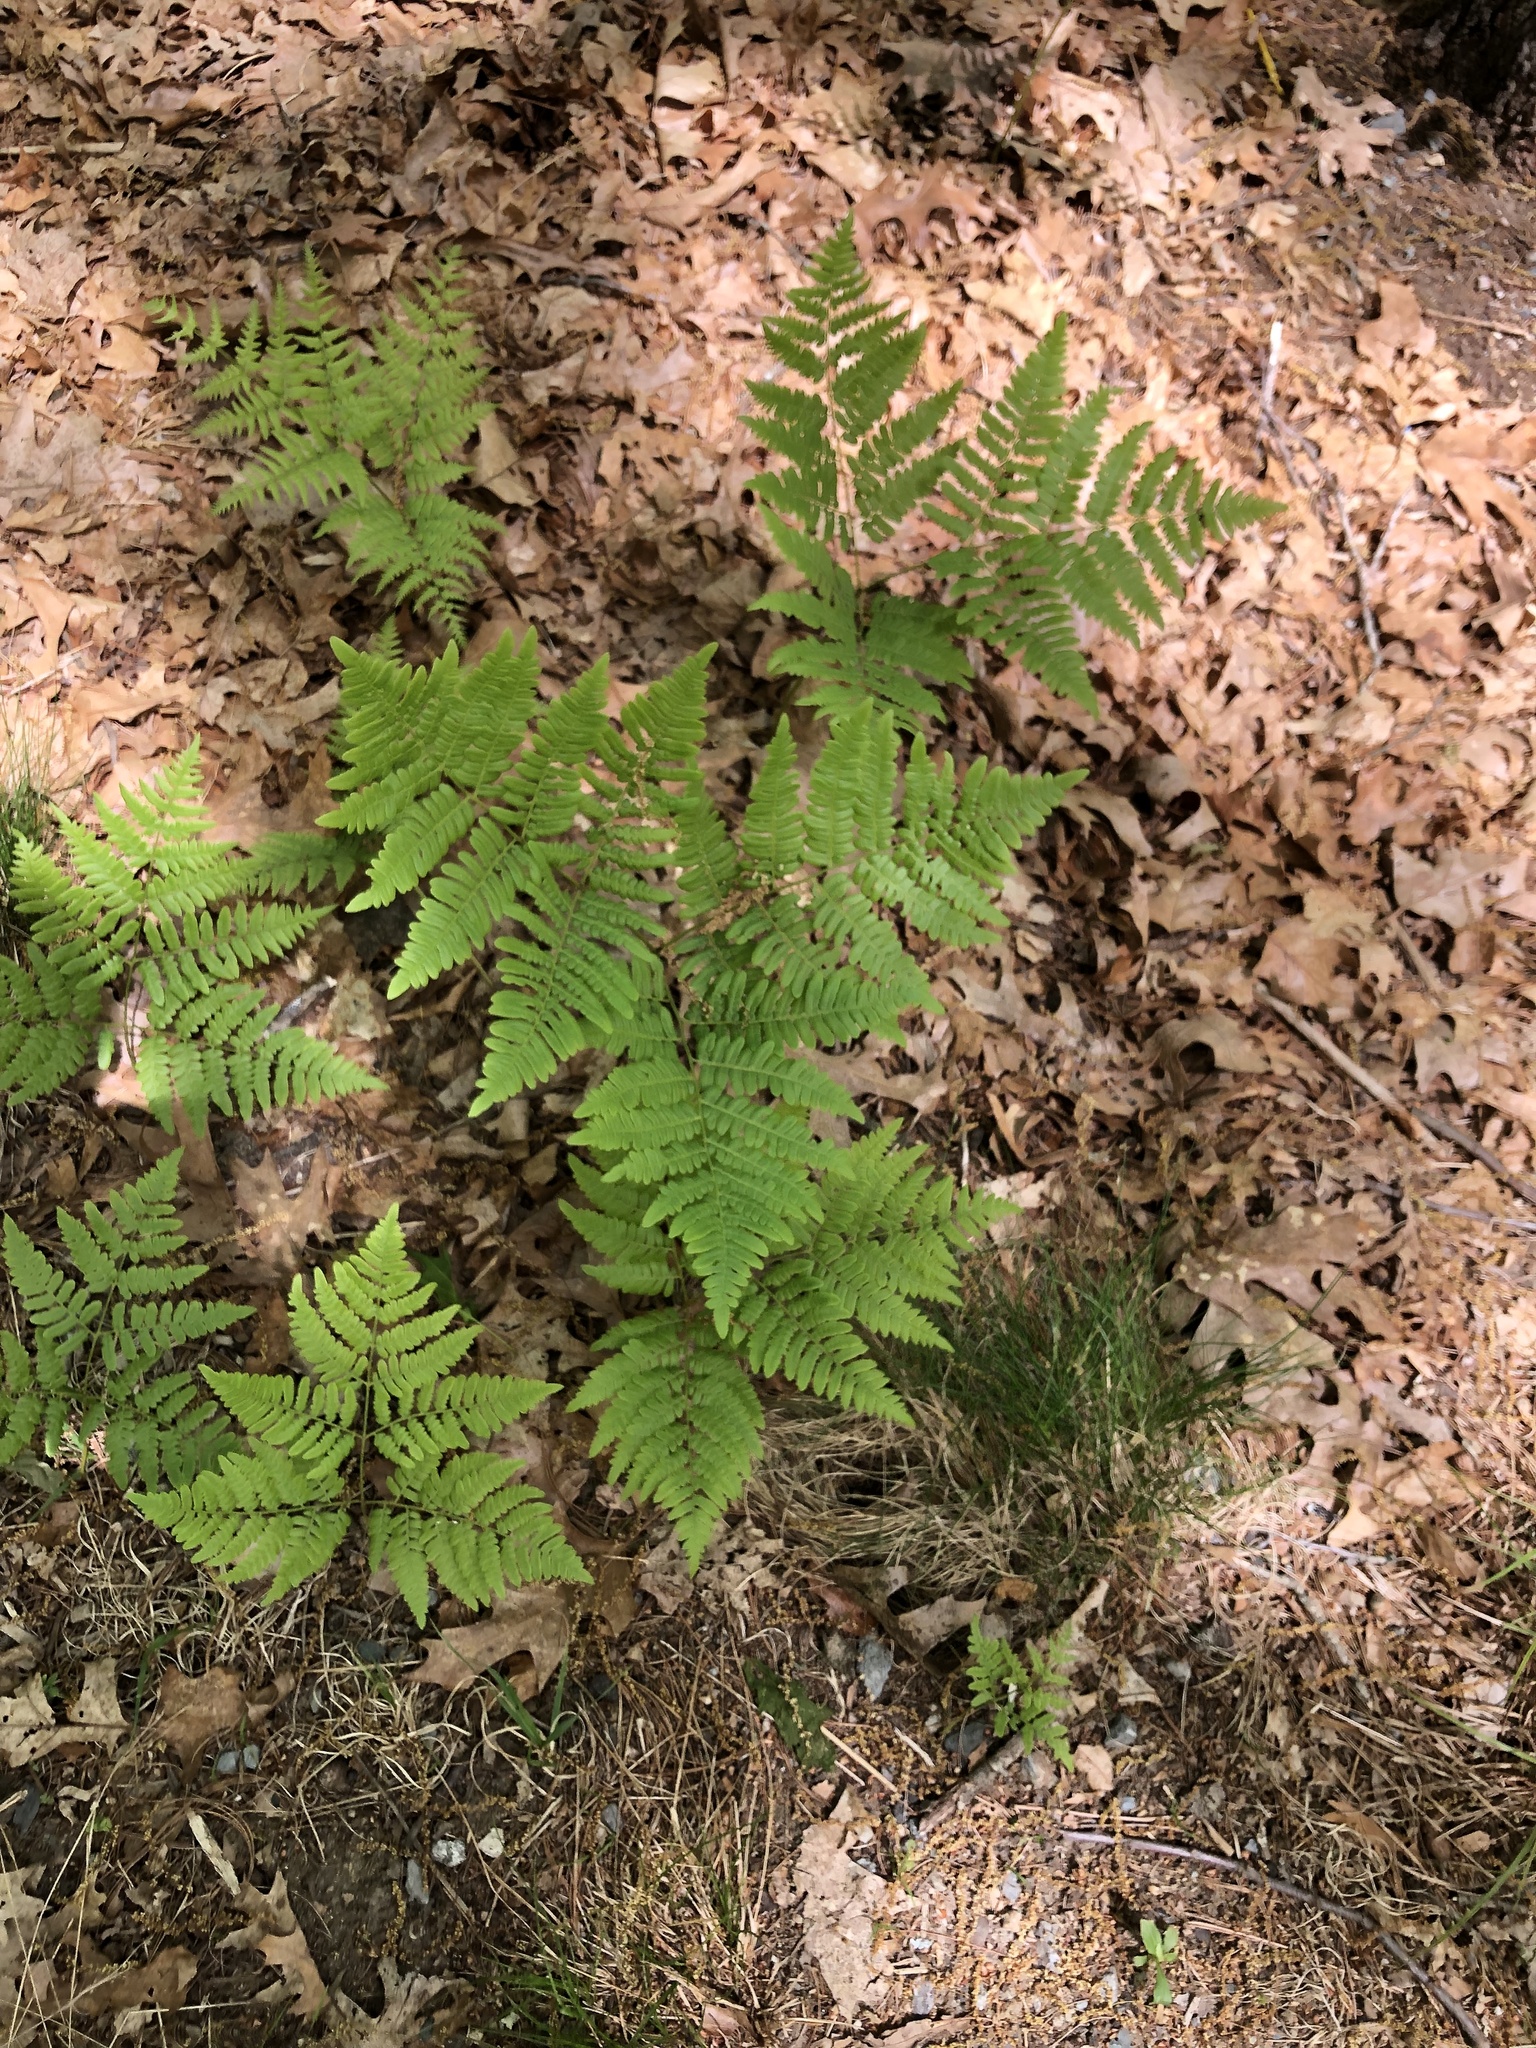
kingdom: Plantae
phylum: Tracheophyta
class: Polypodiopsida
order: Polypodiales
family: Dennstaedtiaceae
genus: Pteridium
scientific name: Pteridium aquilinum
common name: Bracken
